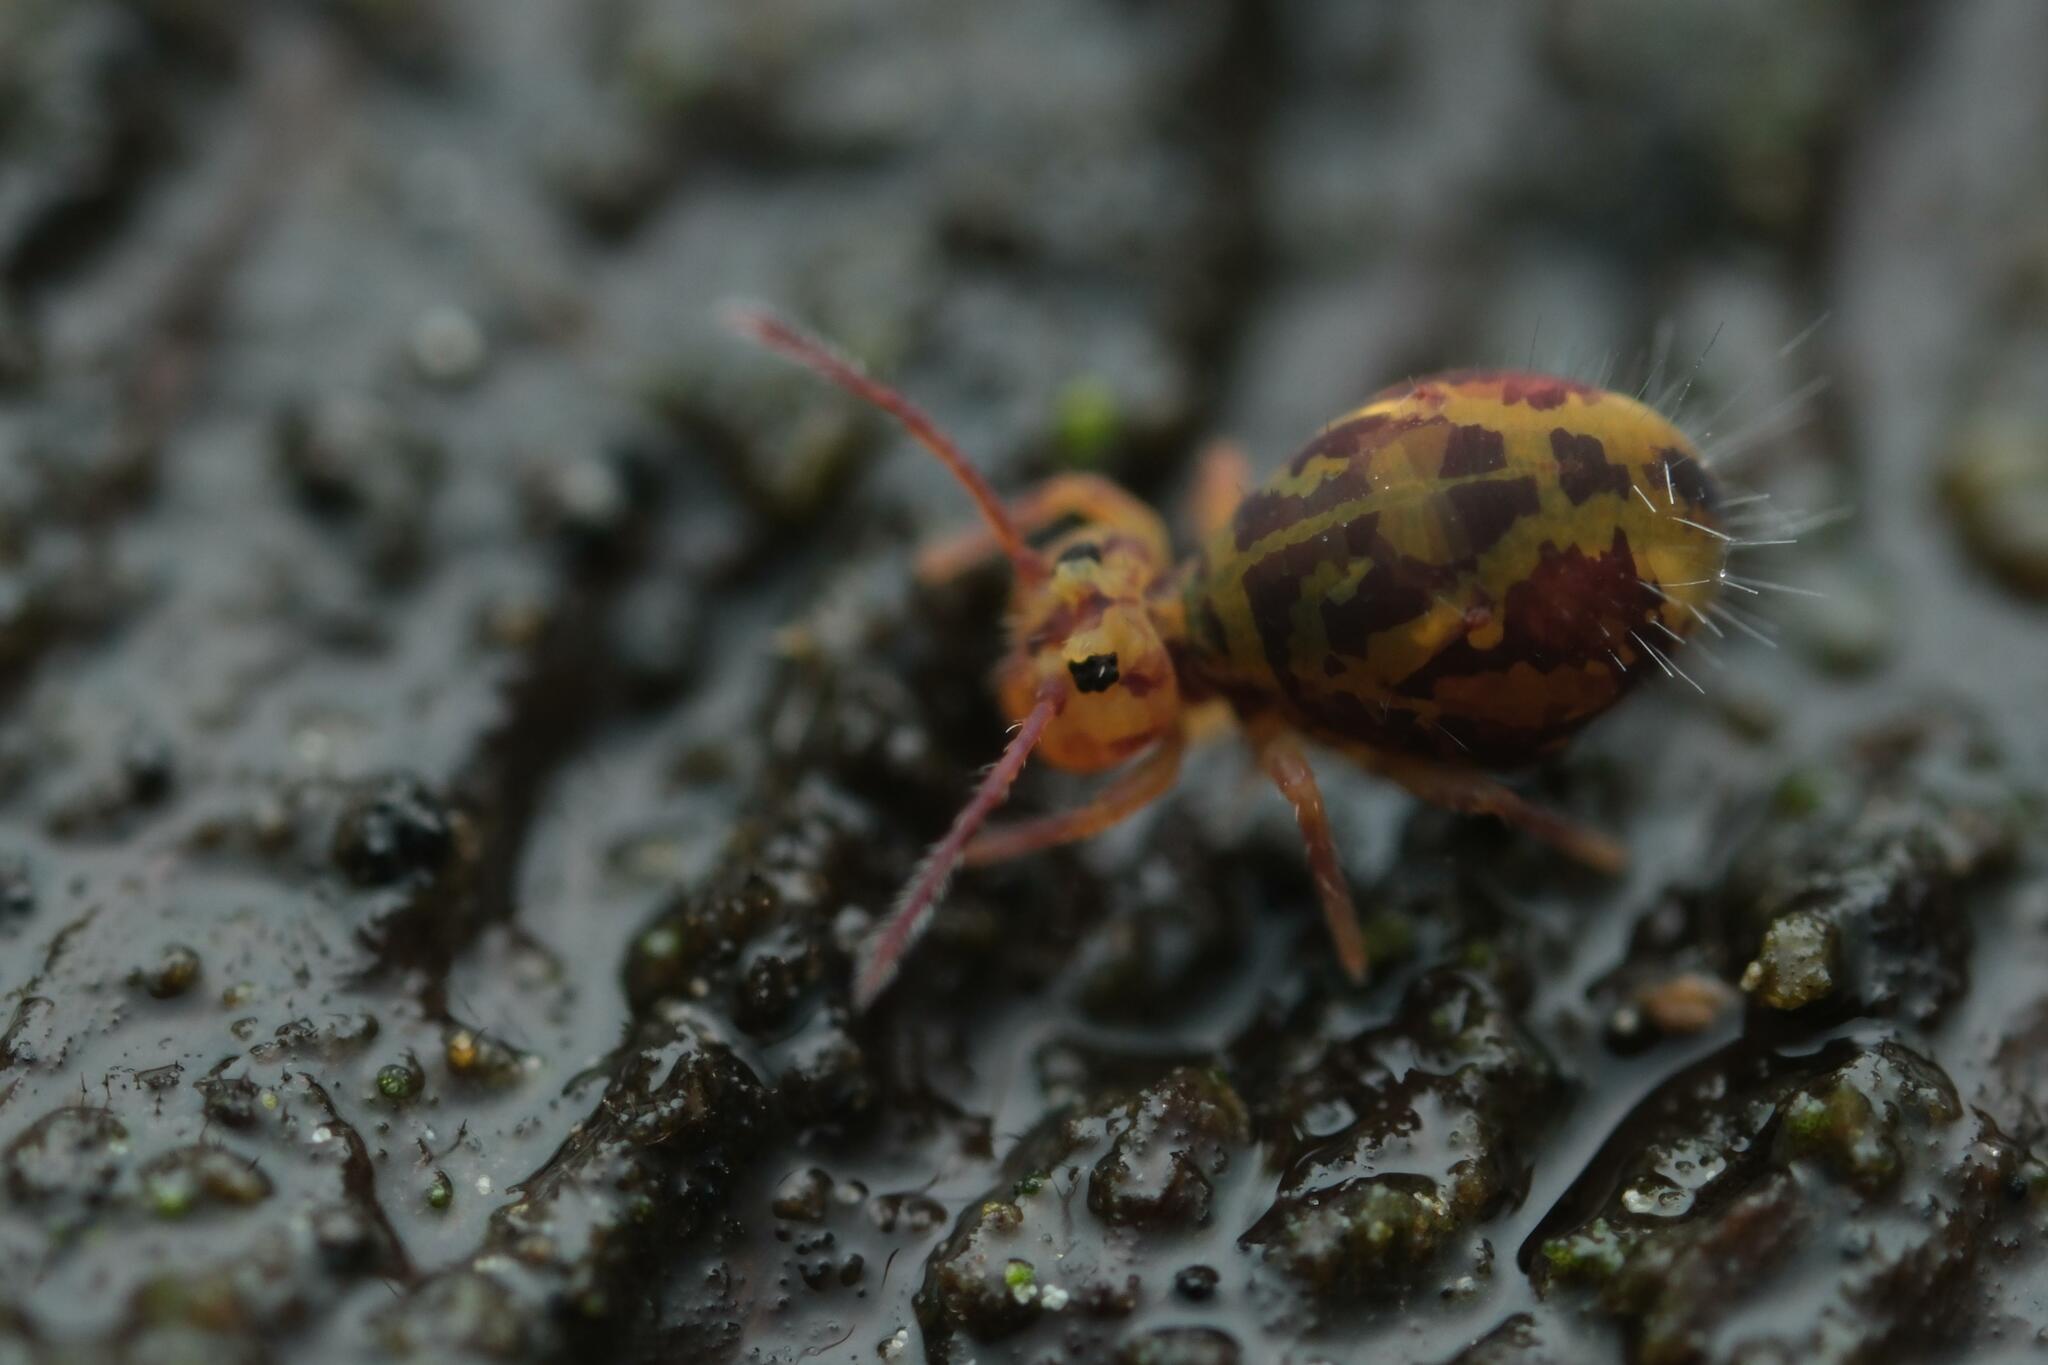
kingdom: Animalia
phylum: Arthropoda
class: Collembola
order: Symphypleona
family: Dicyrtomidae
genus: Dicyrtomina
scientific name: Dicyrtomina ornata
